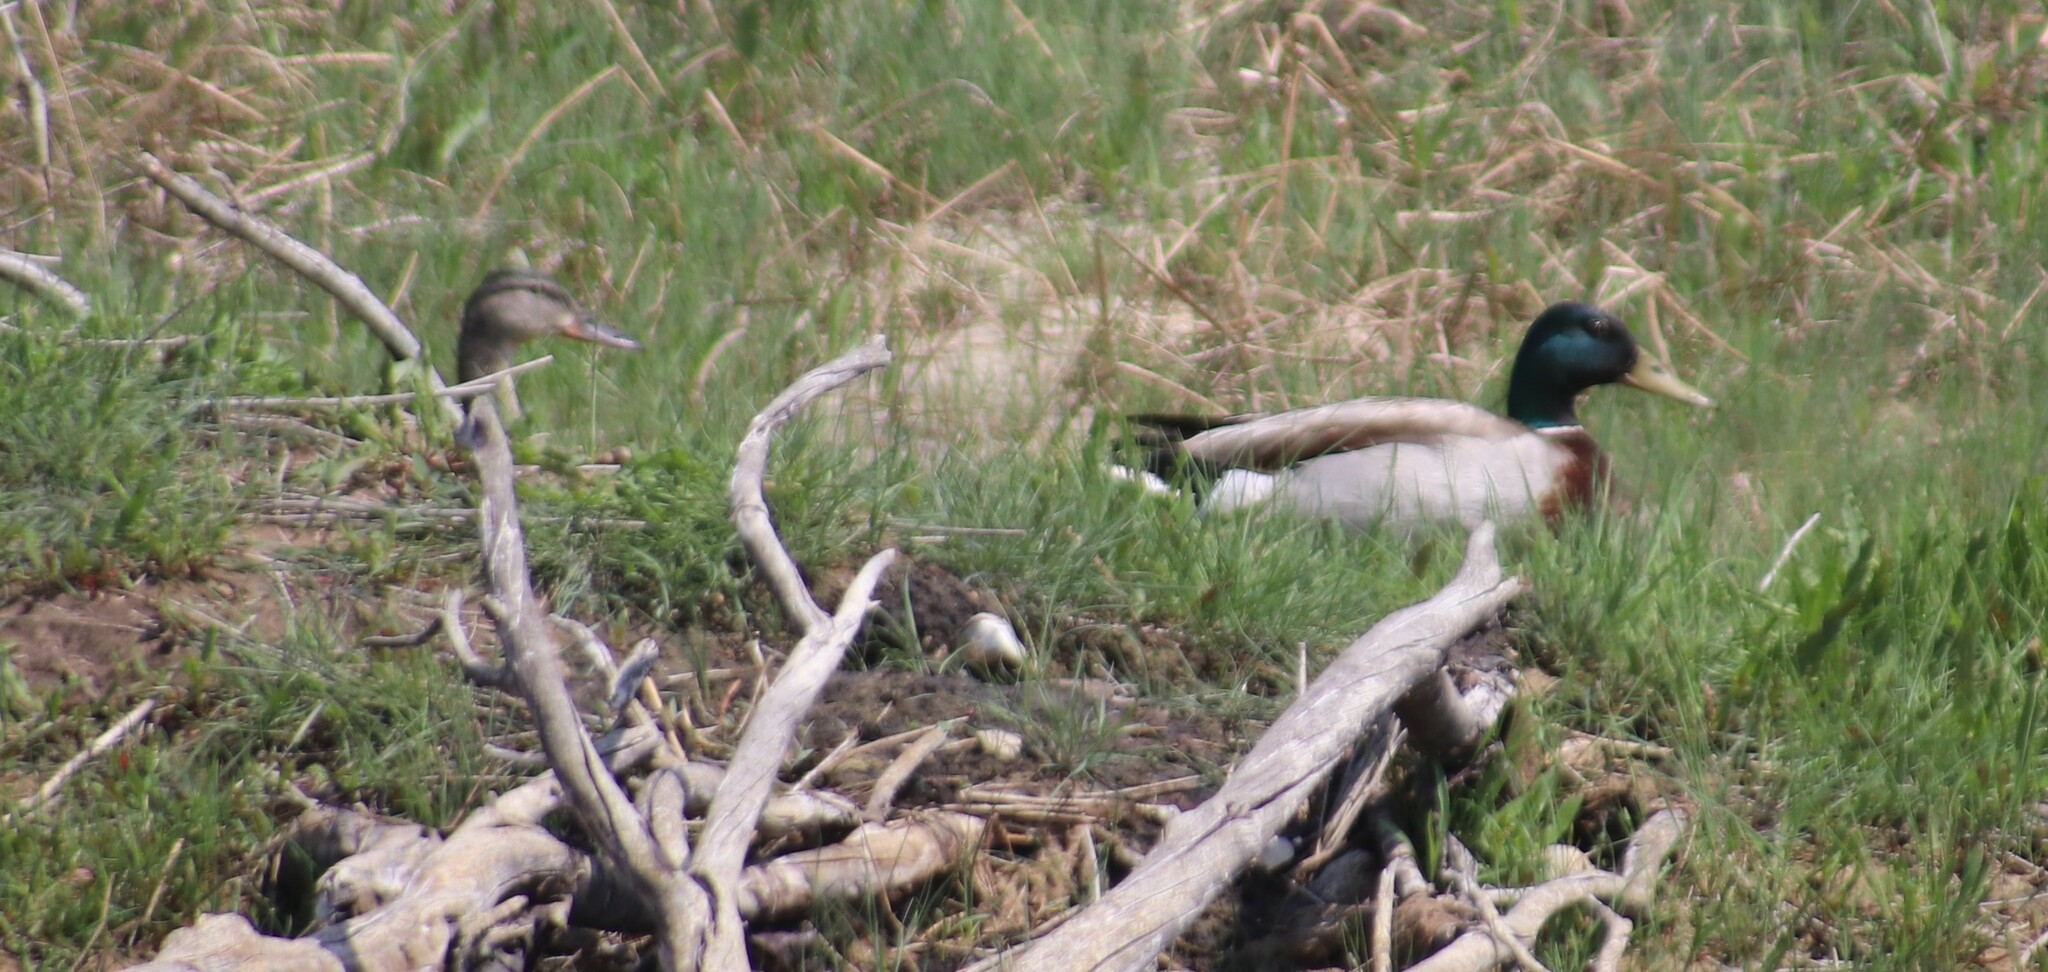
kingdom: Animalia
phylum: Chordata
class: Aves
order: Anseriformes
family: Anatidae
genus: Anas
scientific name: Anas platyrhynchos
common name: Mallard
